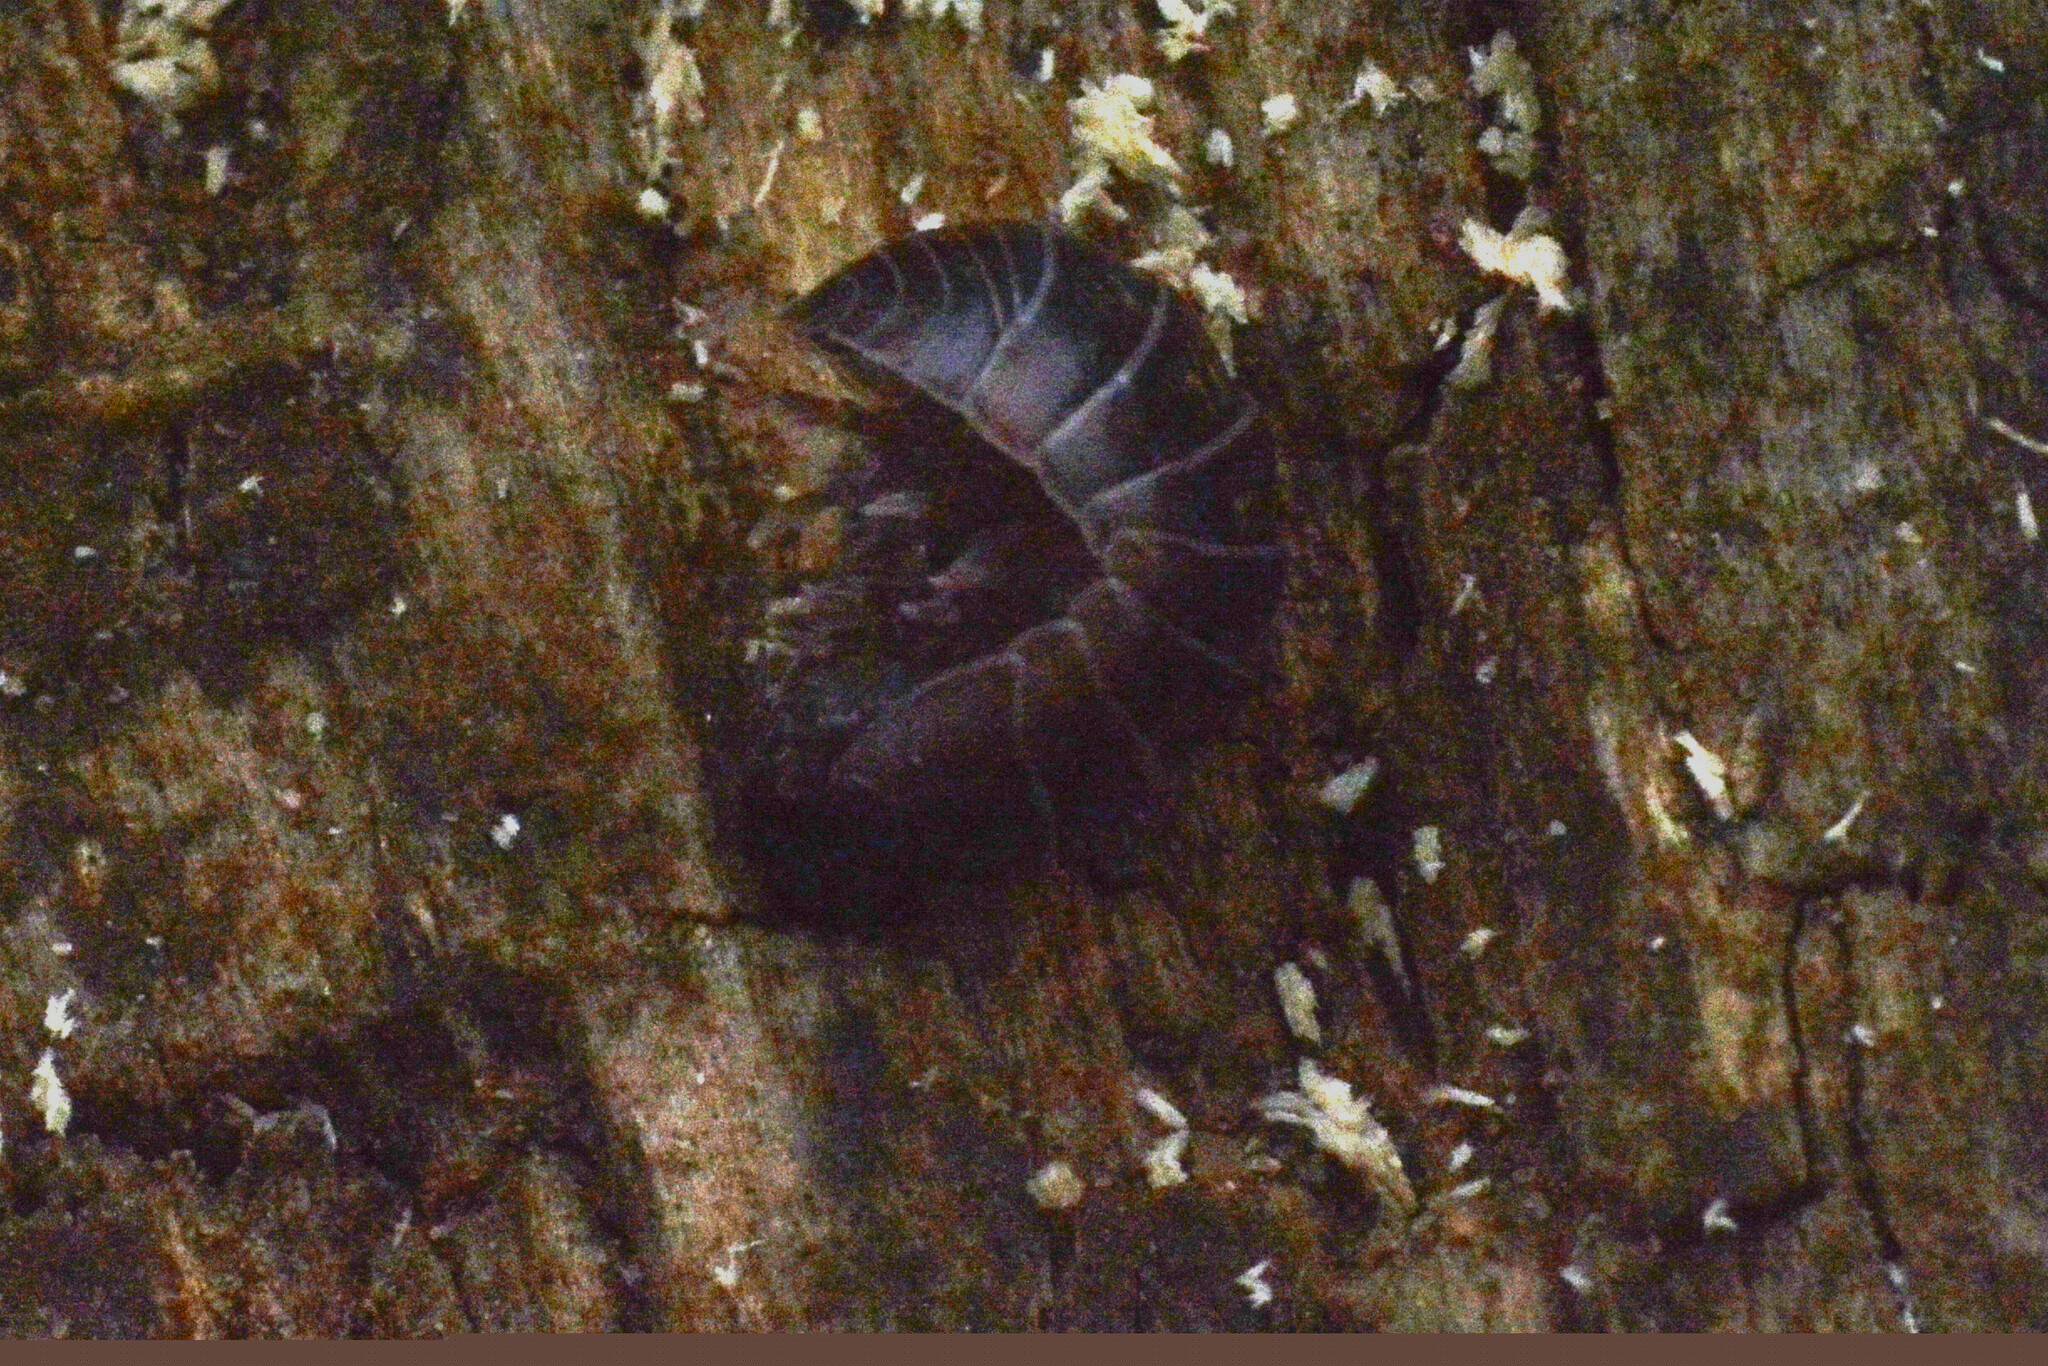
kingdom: Animalia
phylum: Arthropoda
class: Malacostraca
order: Isopoda
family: Armadillidiidae
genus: Armadillidium
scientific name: Armadillidium vulgare
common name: Common pill woodlouse
